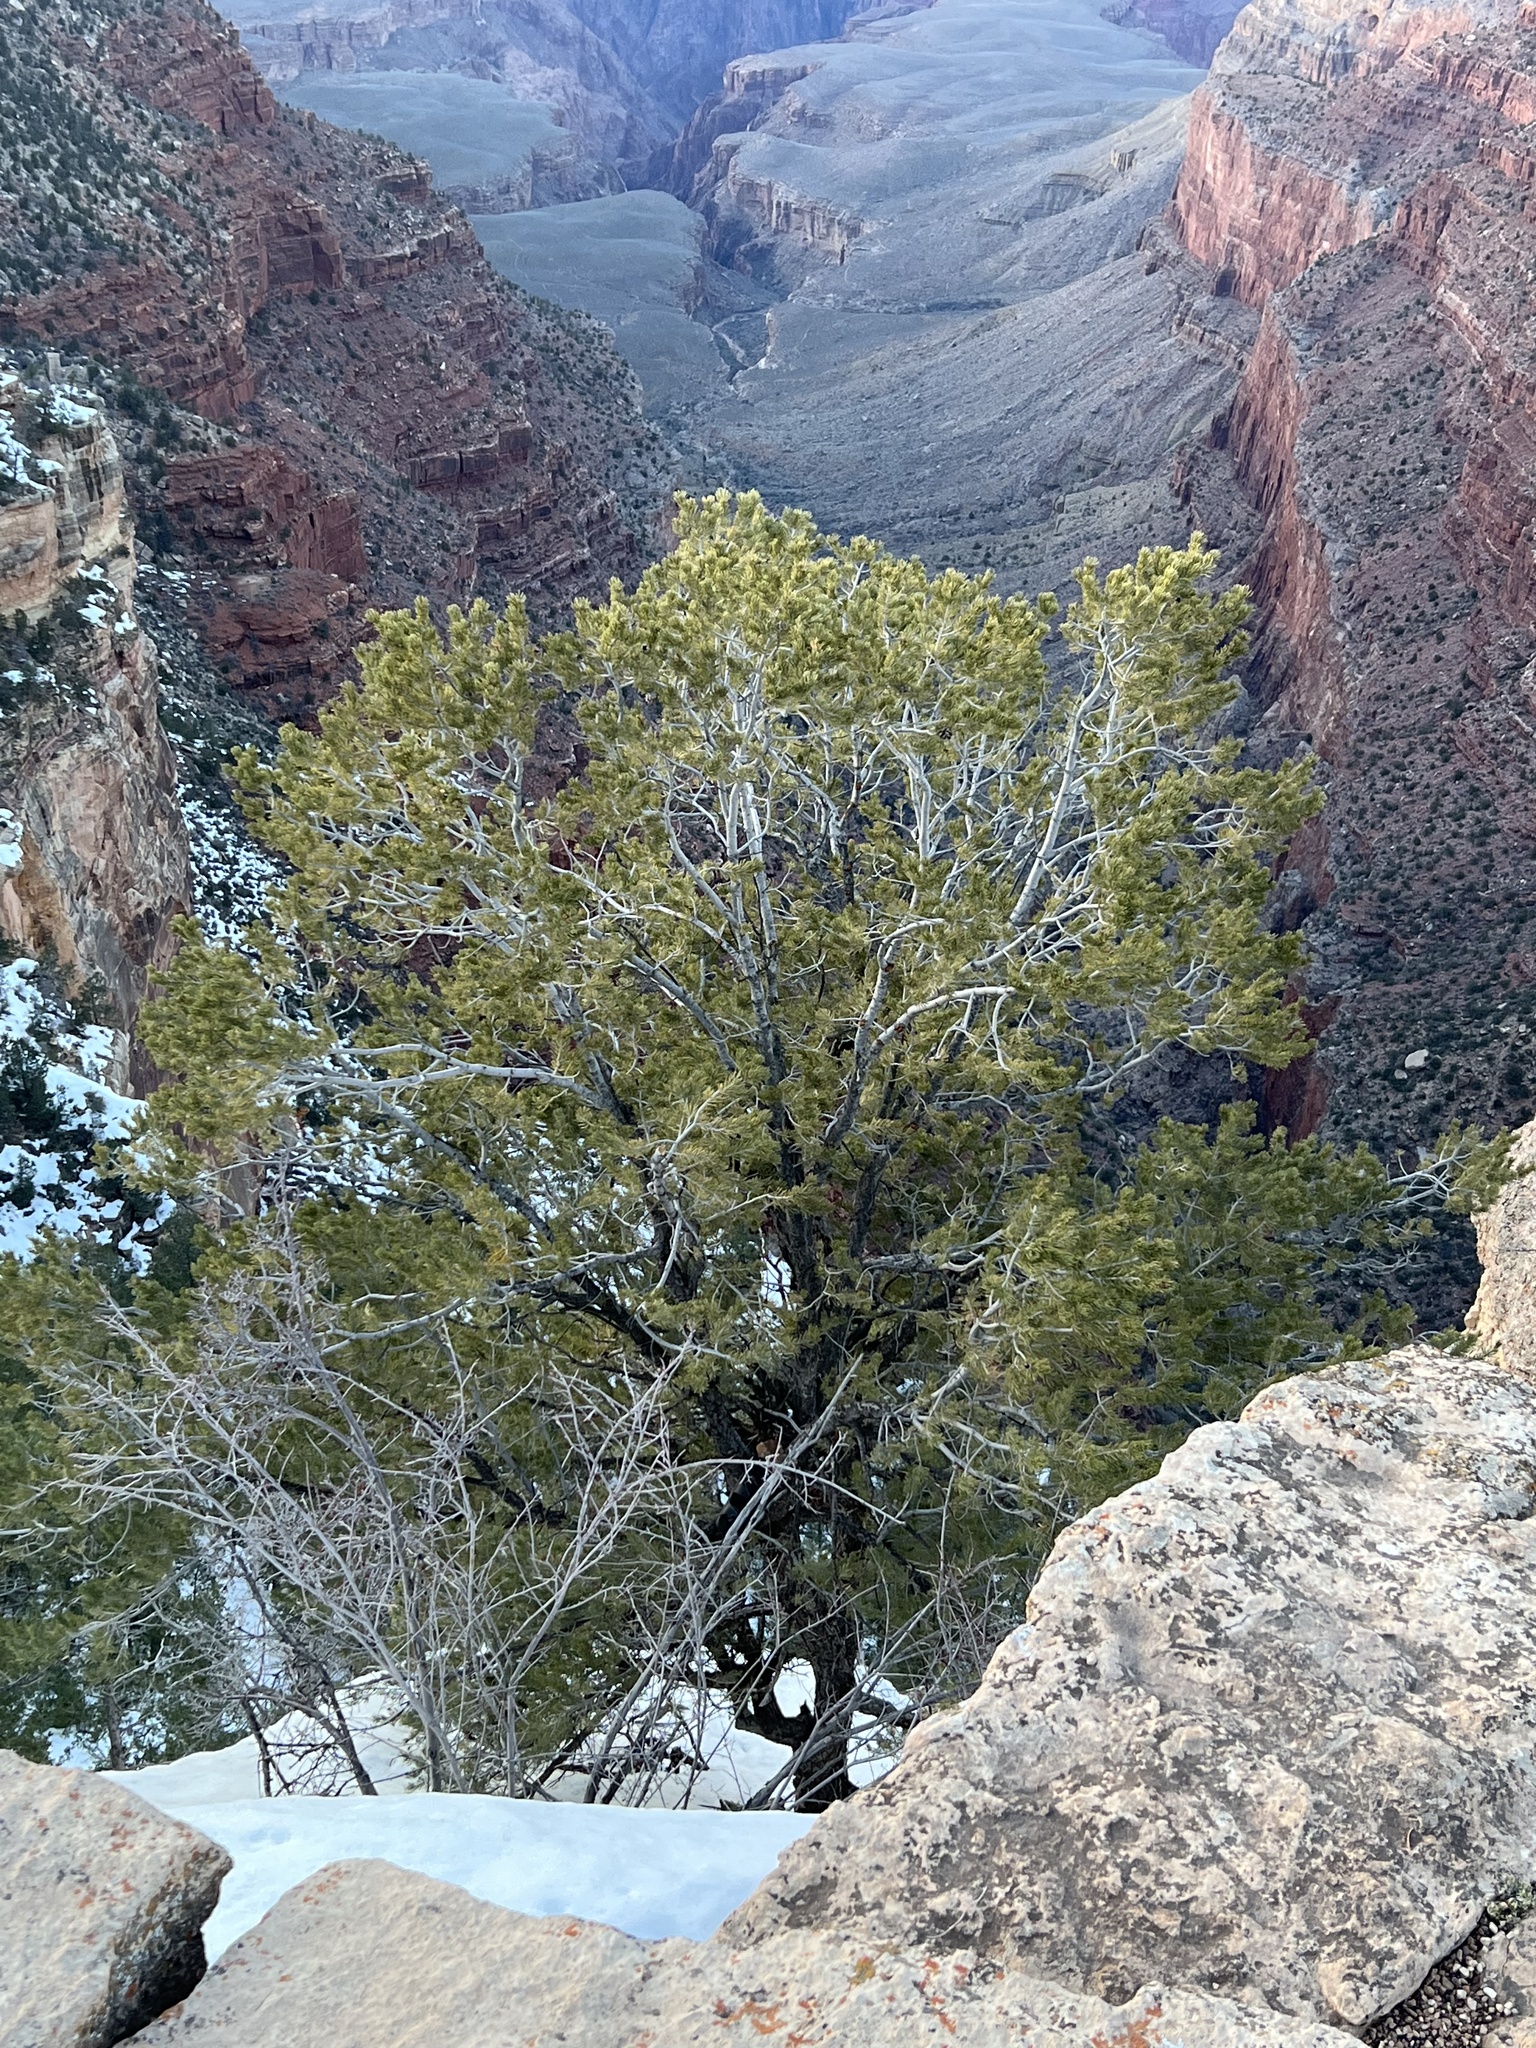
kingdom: Plantae
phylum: Tracheophyta
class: Pinopsida
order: Pinales
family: Pinaceae
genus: Pinus
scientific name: Pinus edulis
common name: Colorado pinyon
